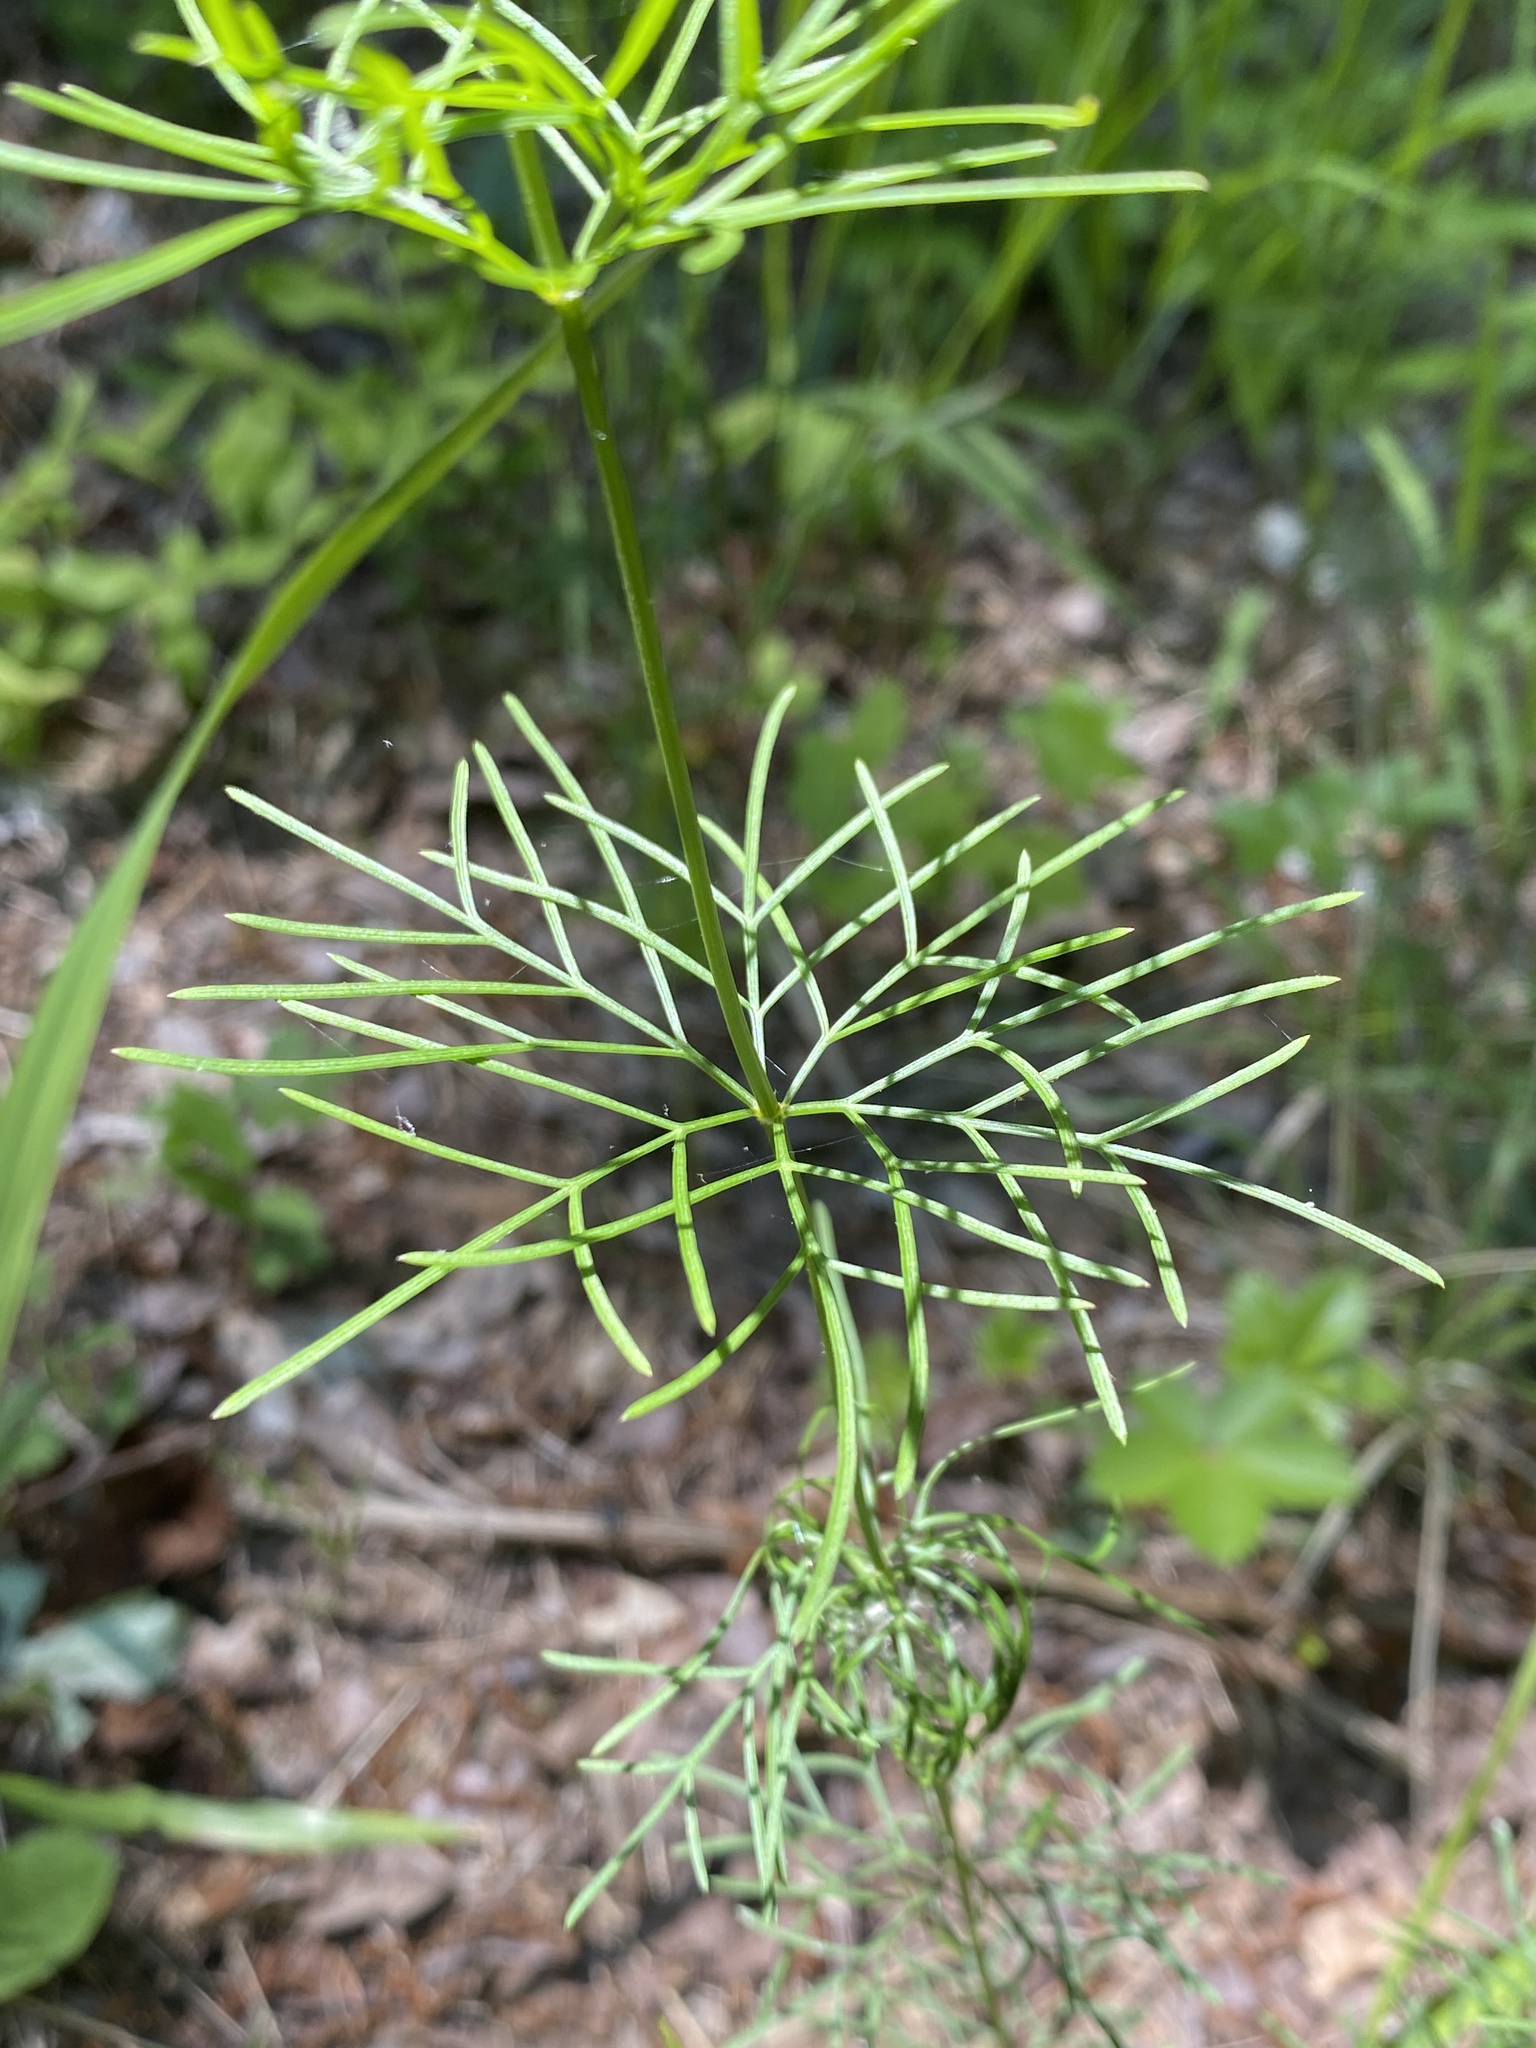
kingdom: Plantae
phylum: Tracheophyta
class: Magnoliopsida
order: Asterales
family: Asteraceae
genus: Coreopsis
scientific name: Coreopsis verticillata
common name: Whorled tickseed
